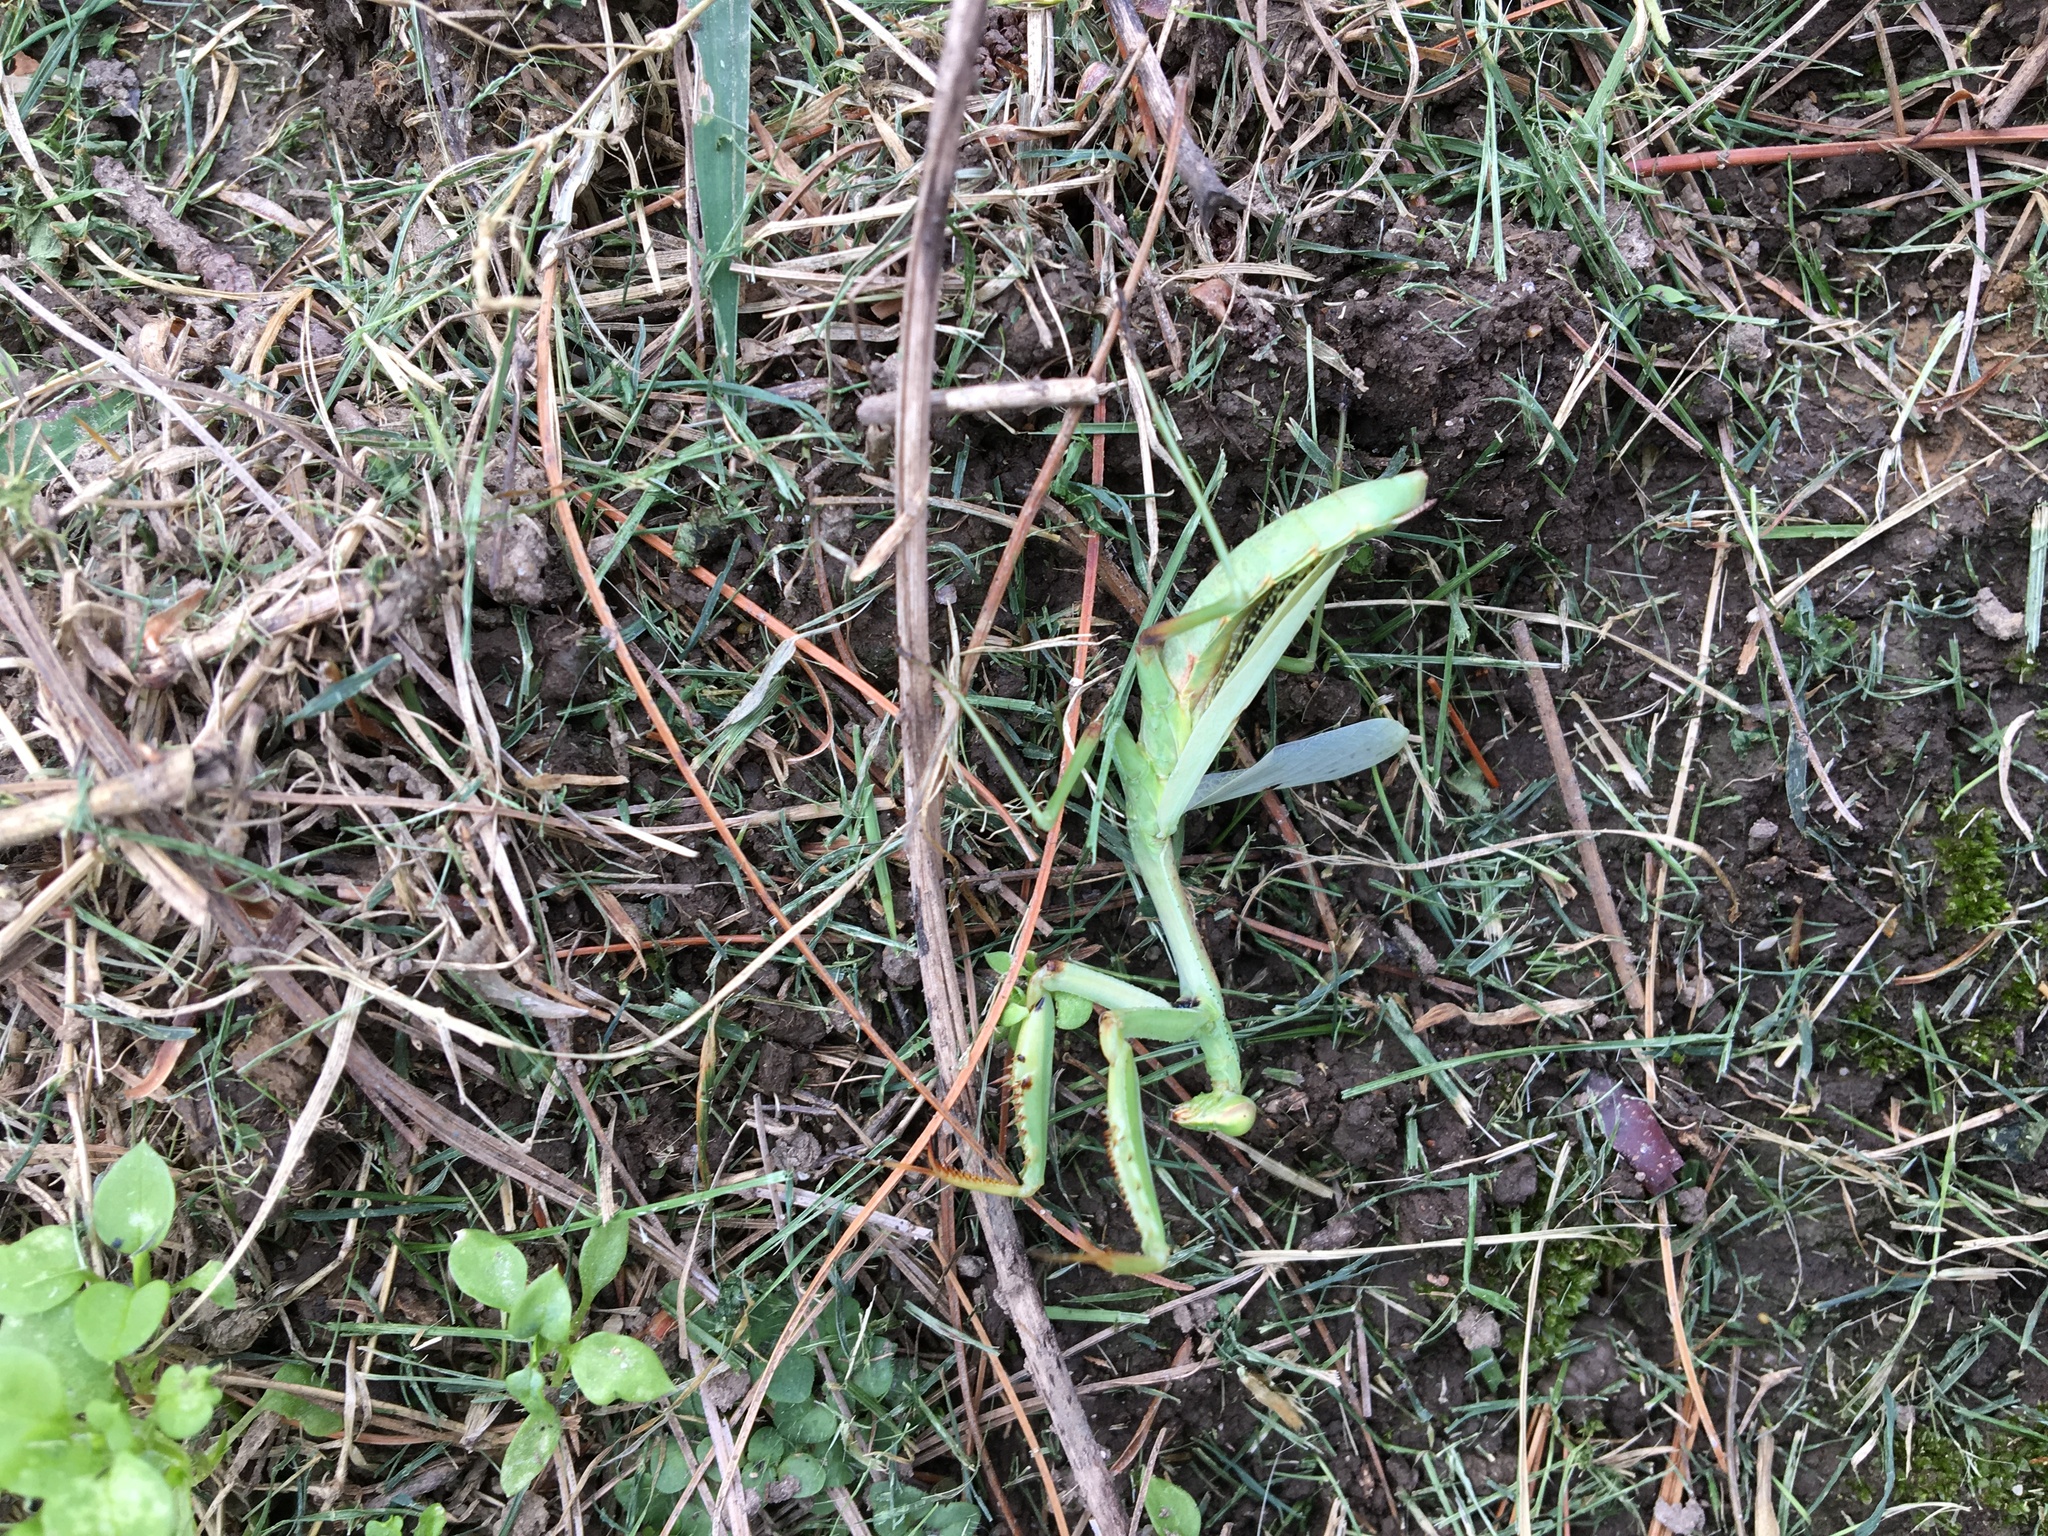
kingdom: Animalia
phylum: Arthropoda
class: Insecta
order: Mantodea
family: Mantidae
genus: Stagmomantis
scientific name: Stagmomantis carolina
